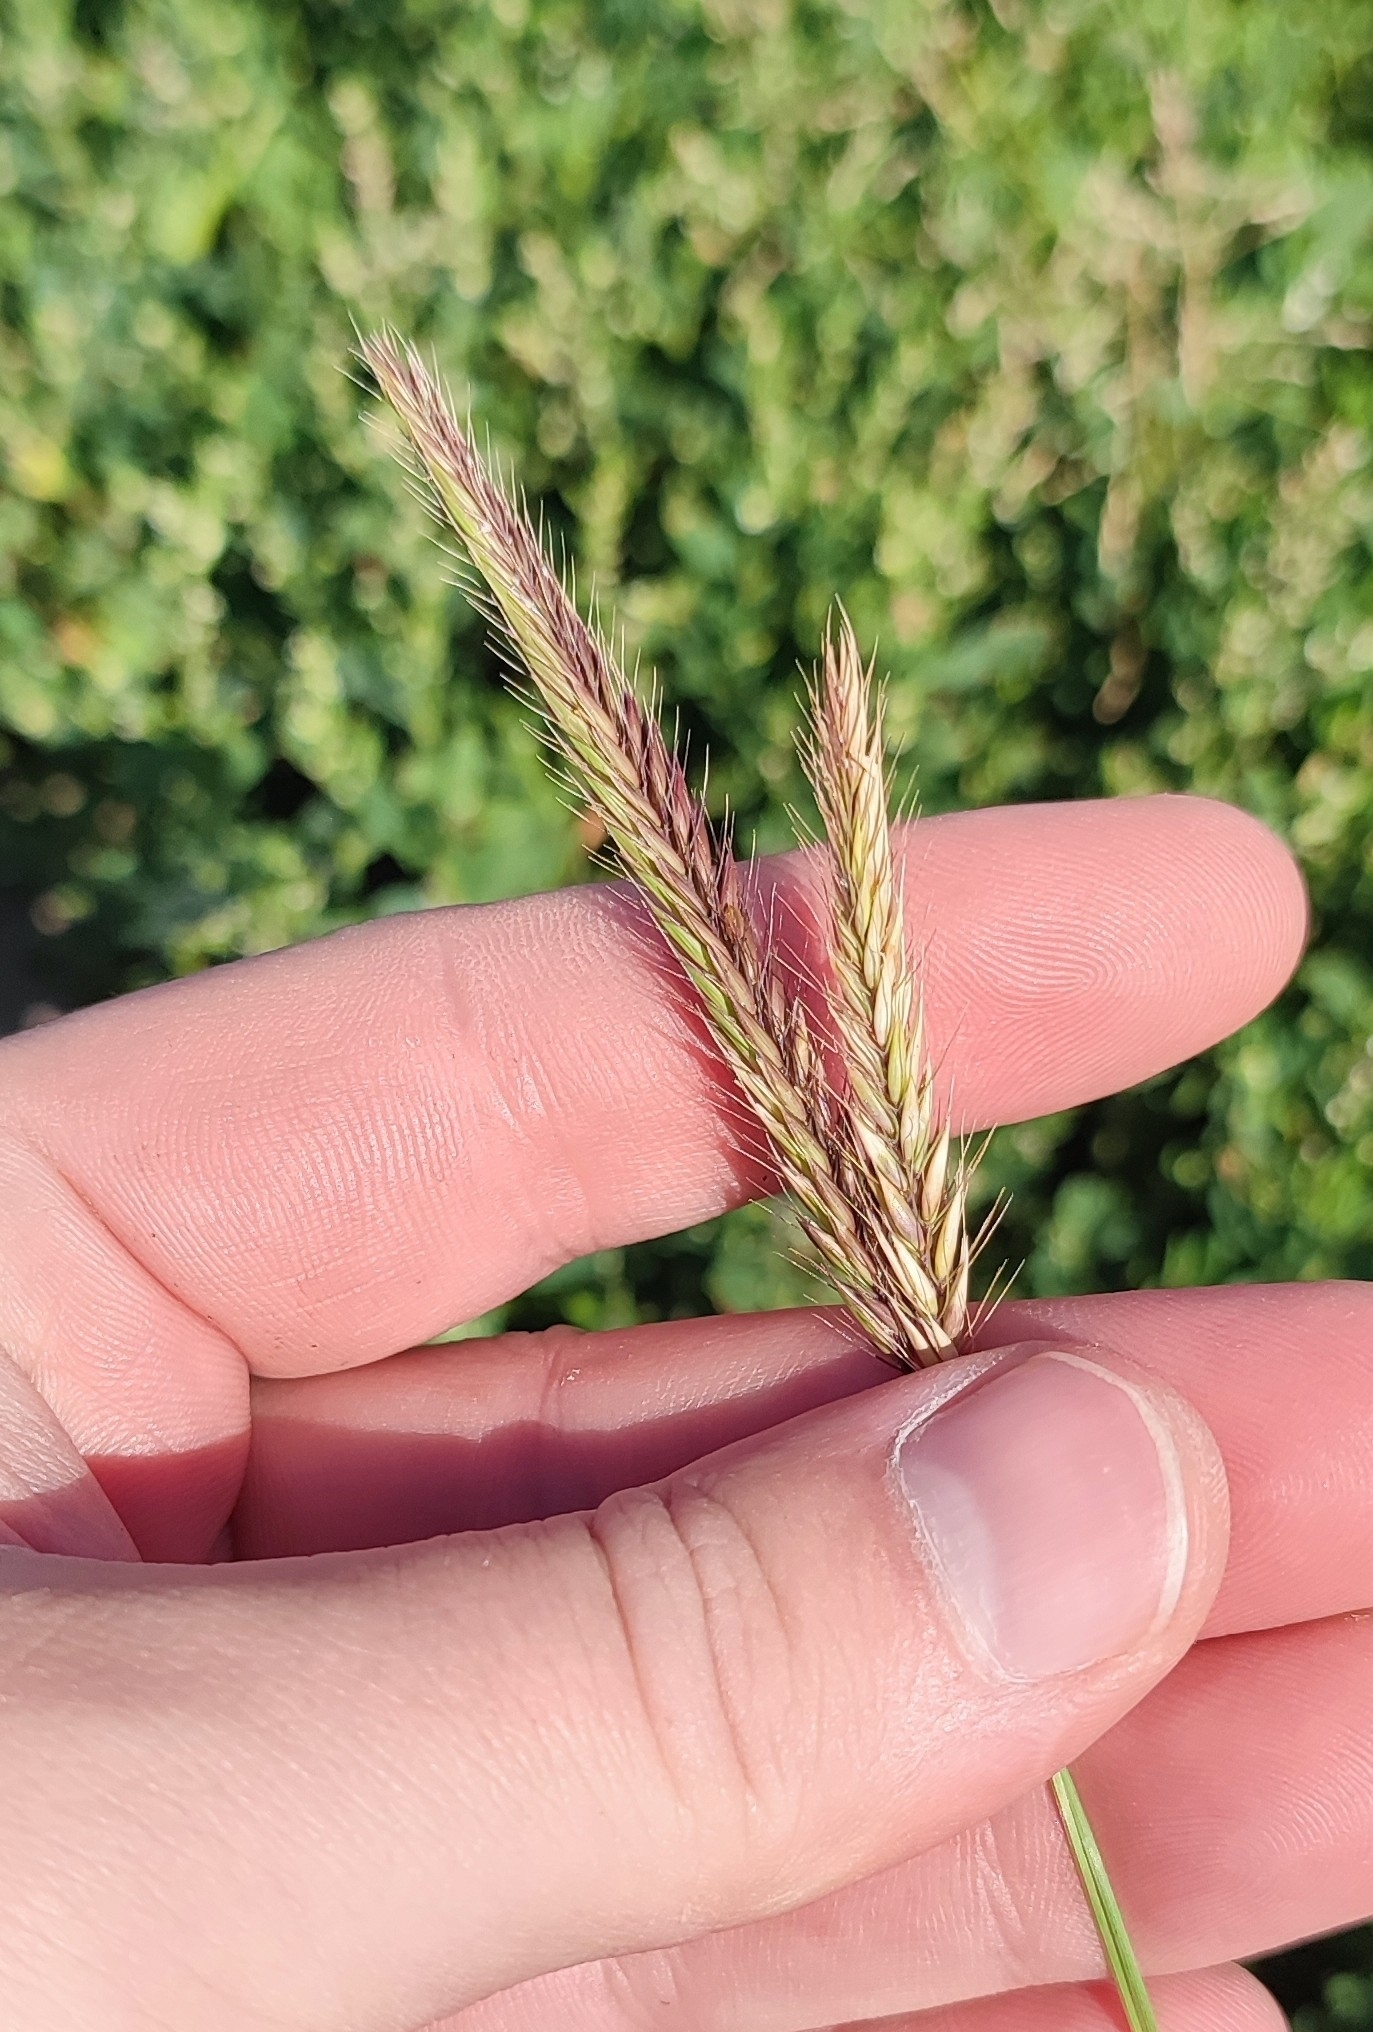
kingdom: Plantae
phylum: Tracheophyta
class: Liliopsida
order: Poales
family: Poaceae
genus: Hordeum
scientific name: Hordeum brevisubulatum
